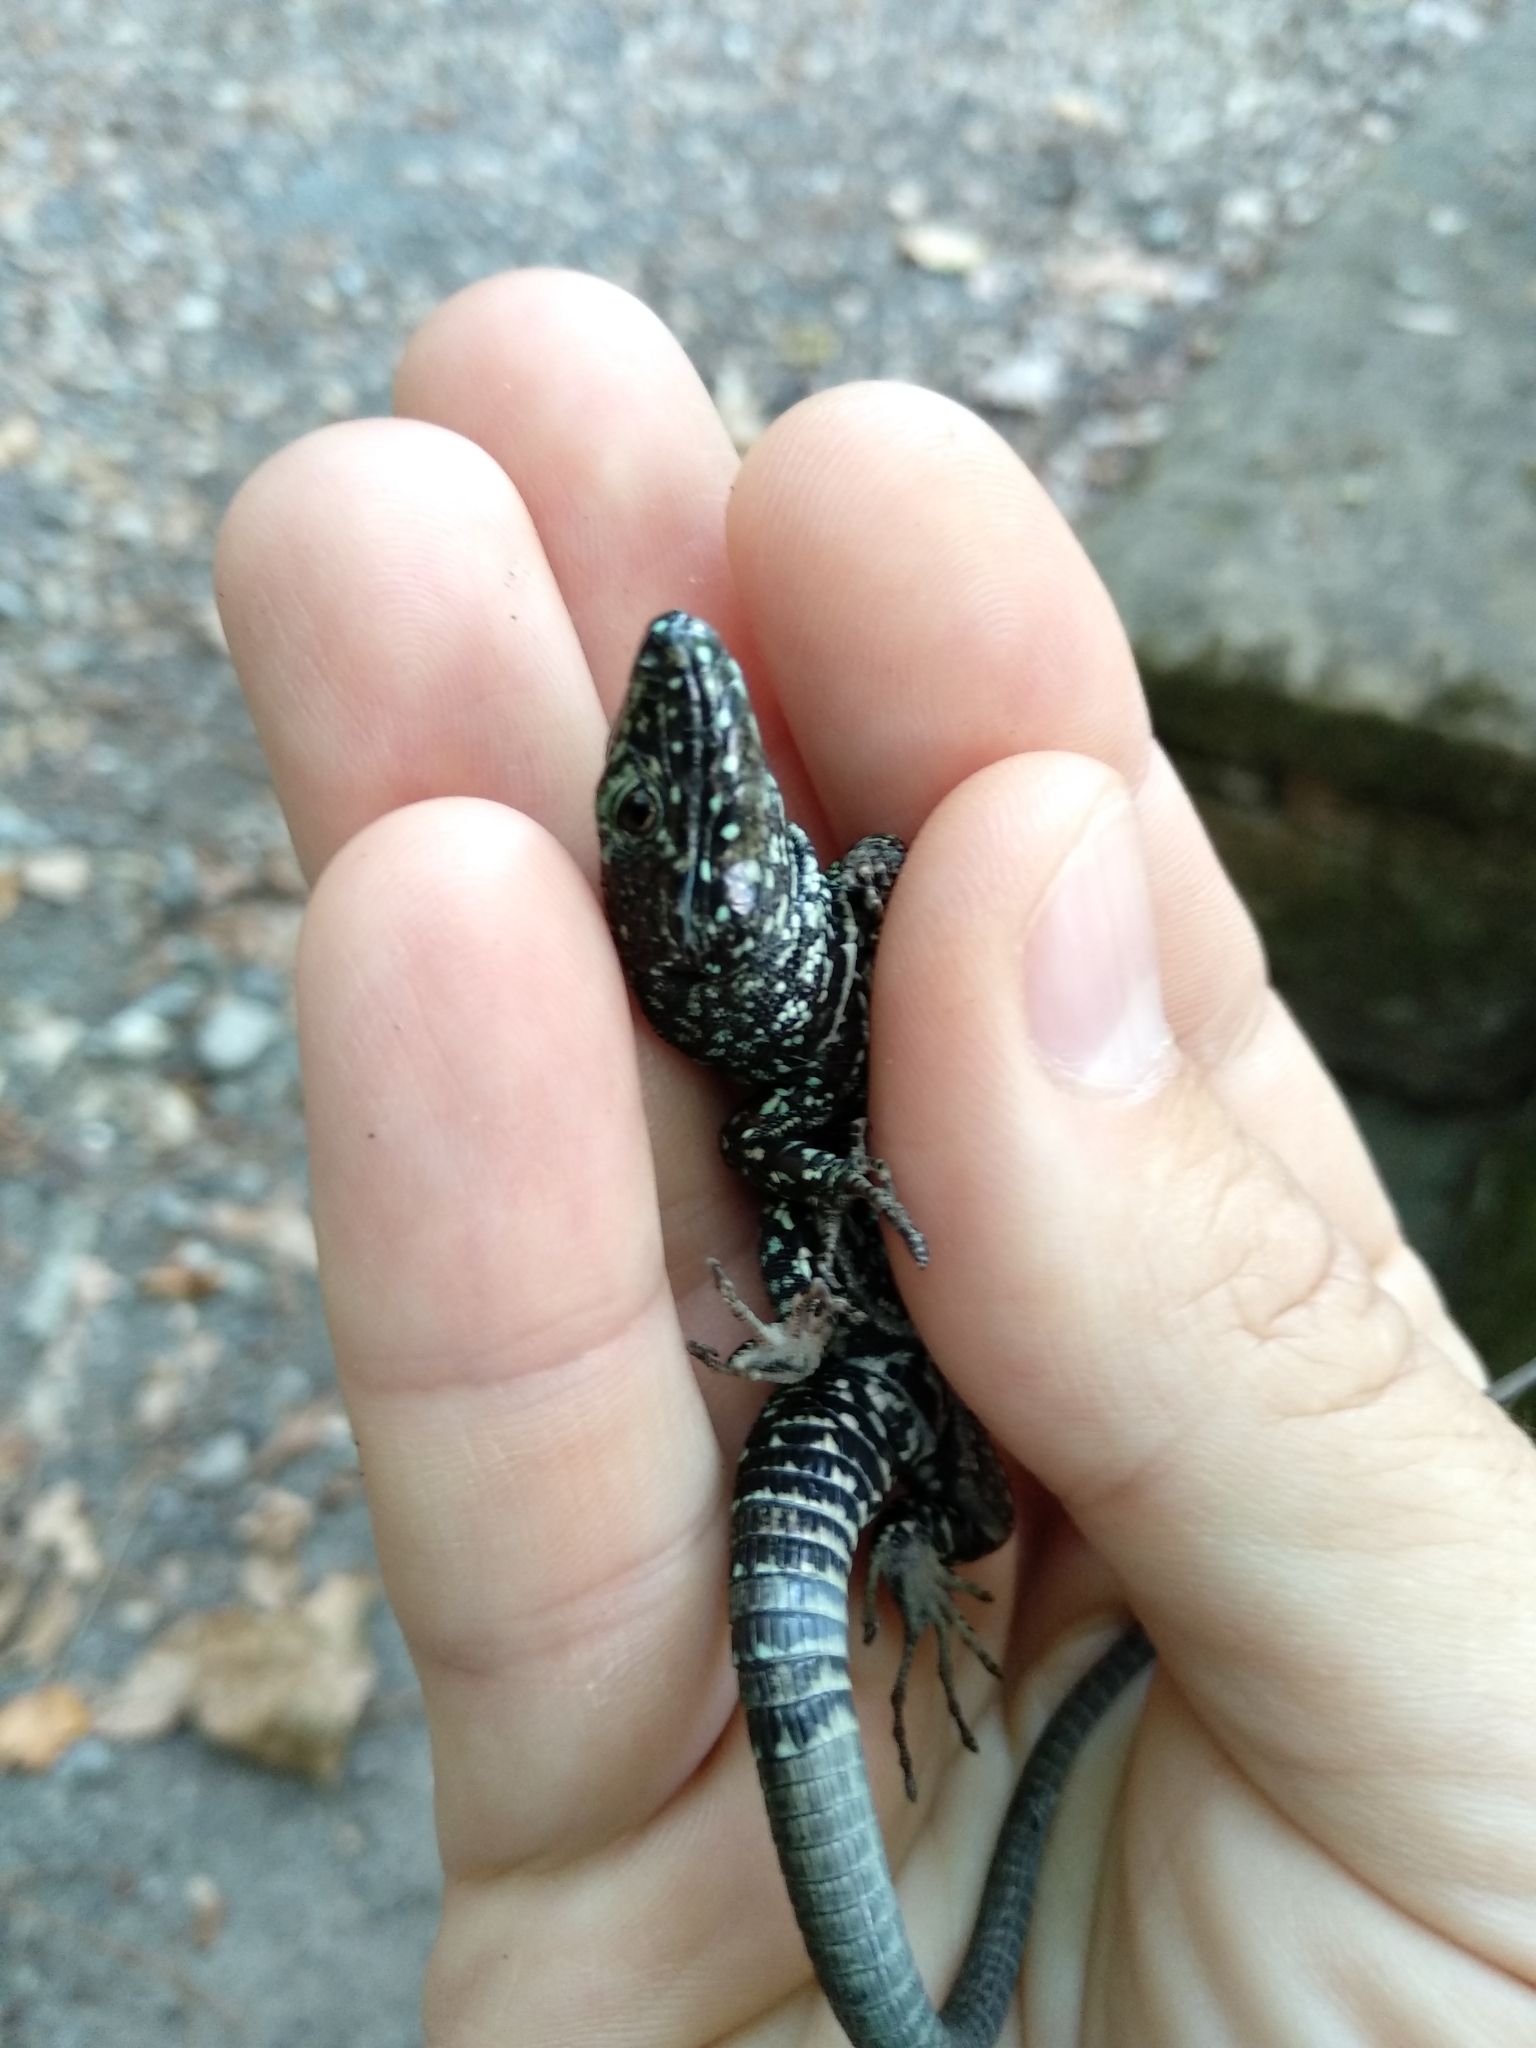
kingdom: Animalia
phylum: Chordata
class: Squamata
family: Lacertidae
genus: Podarcis
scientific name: Podarcis muralis
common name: Common wall lizard
